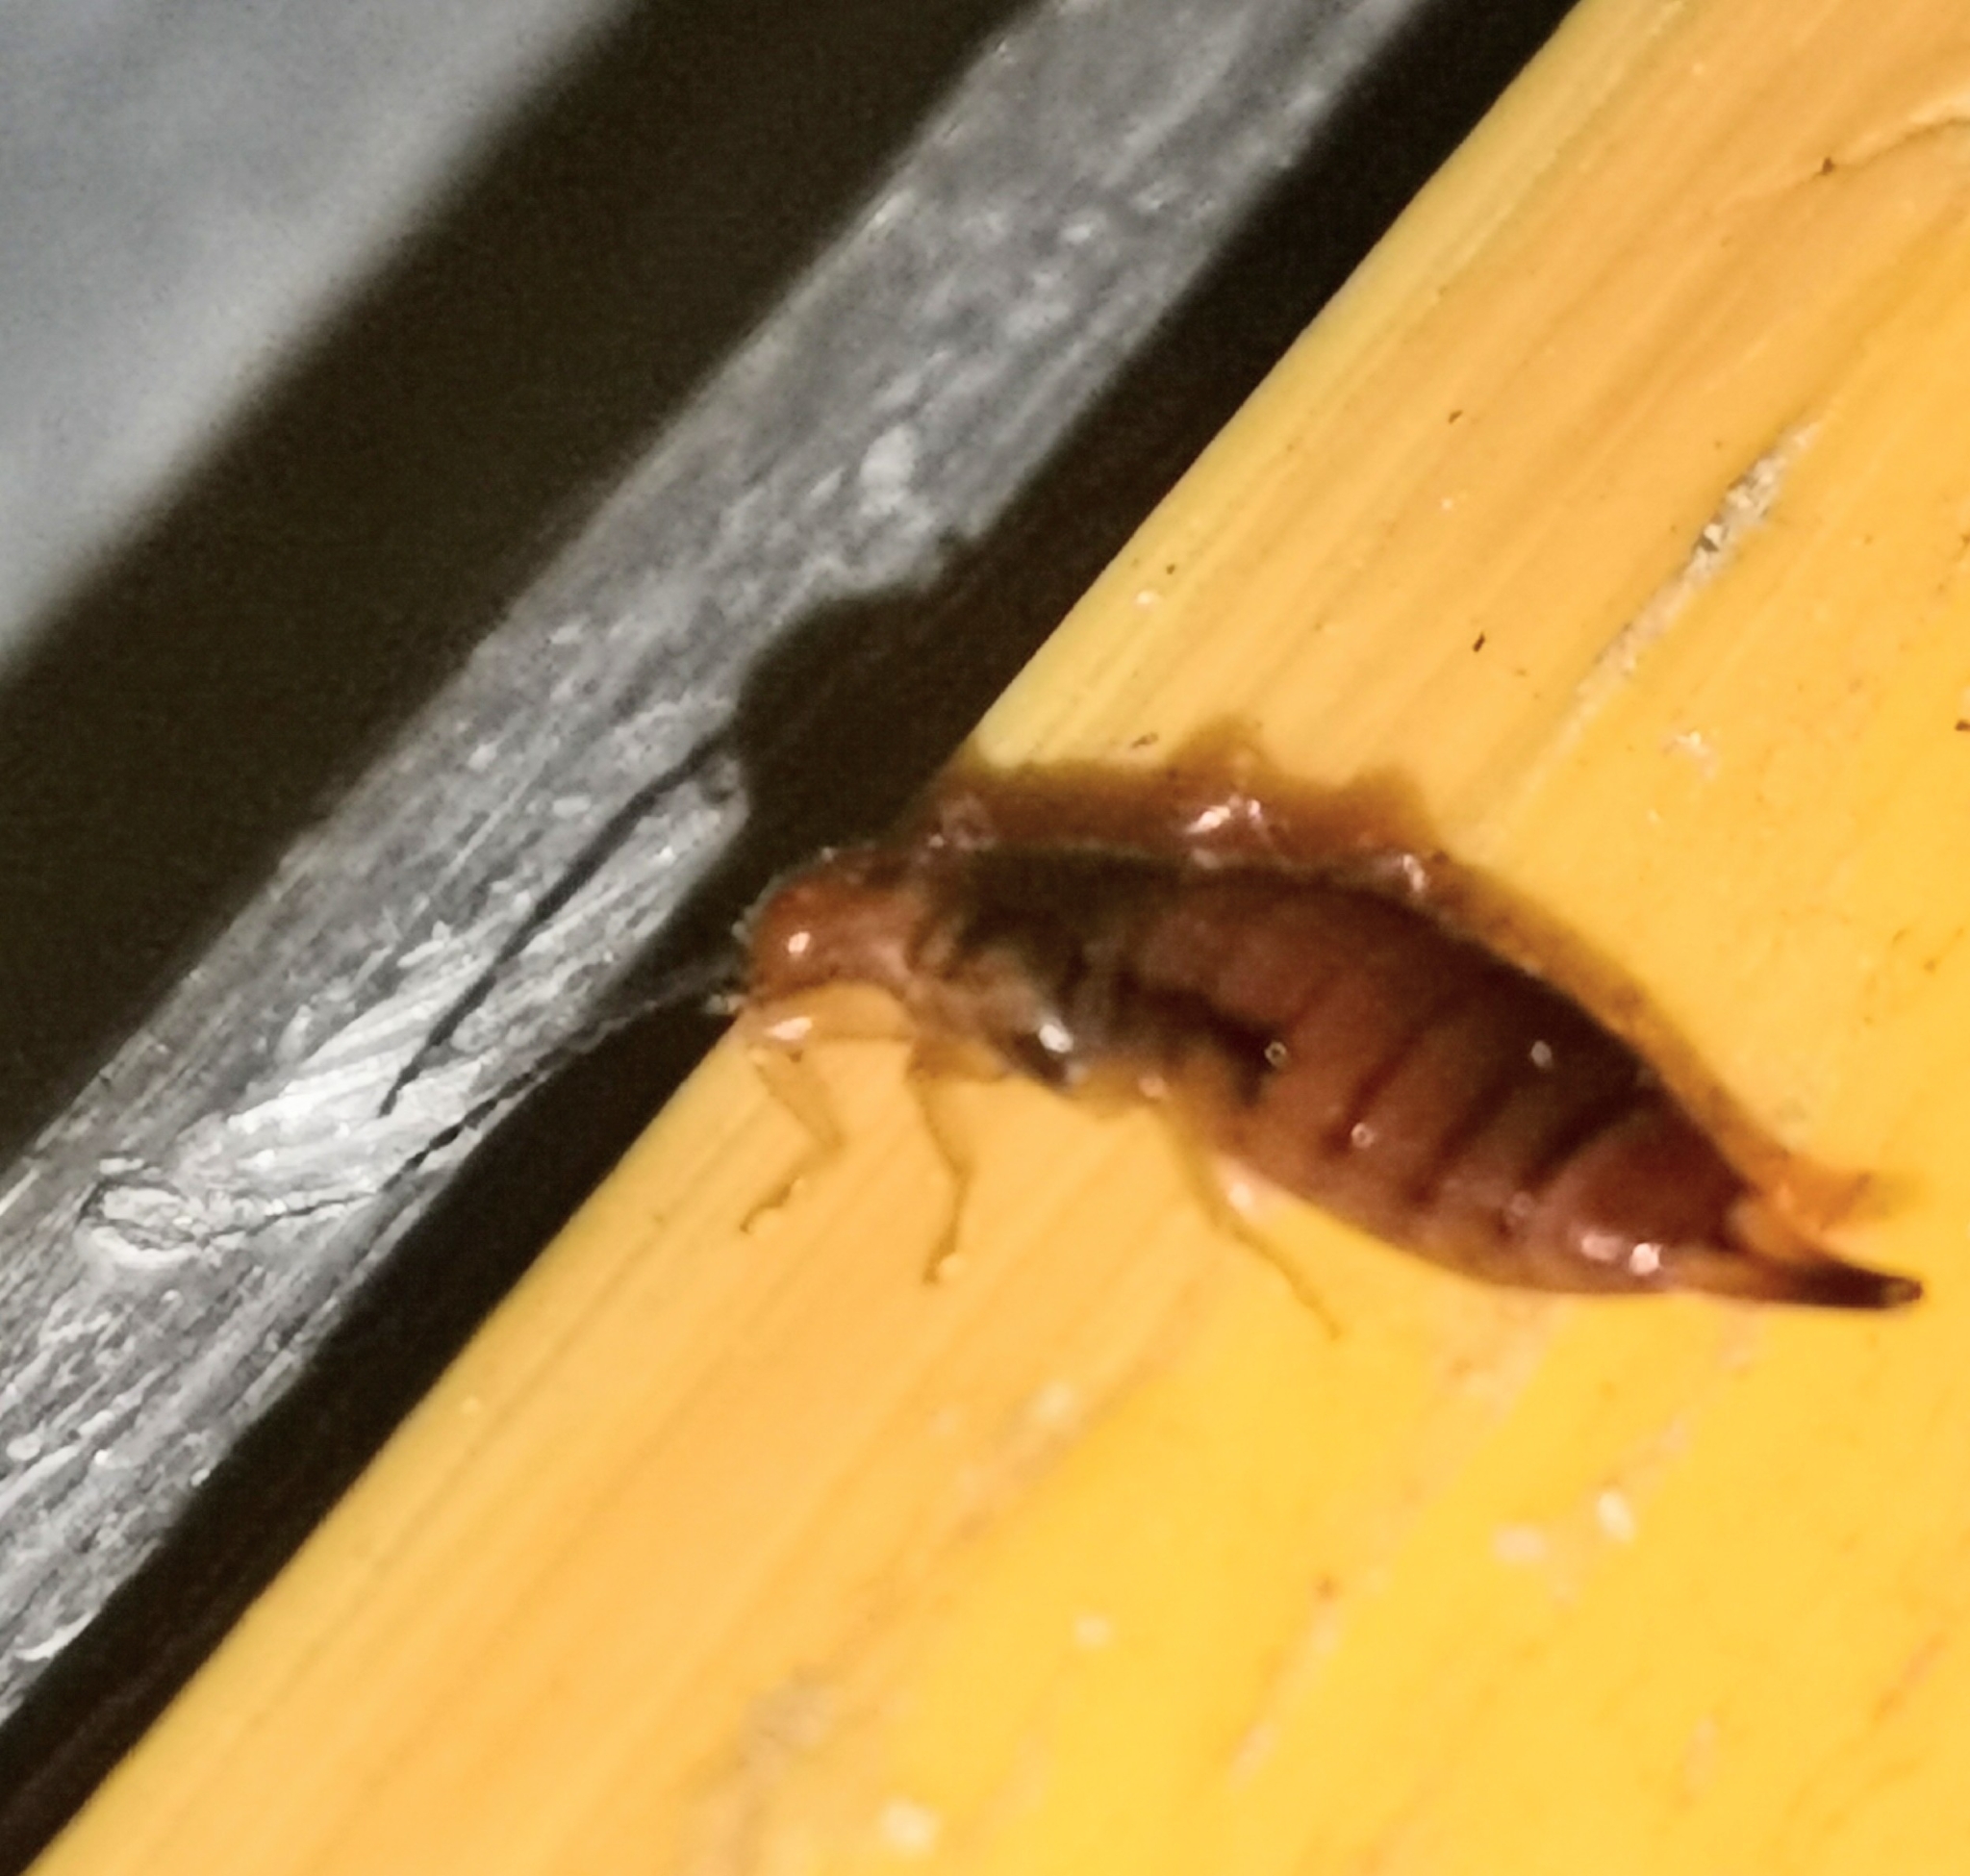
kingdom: Animalia
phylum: Arthropoda
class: Insecta
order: Dermaptera
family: Forficulidae
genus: Apterygida
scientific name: Apterygida albipennis
